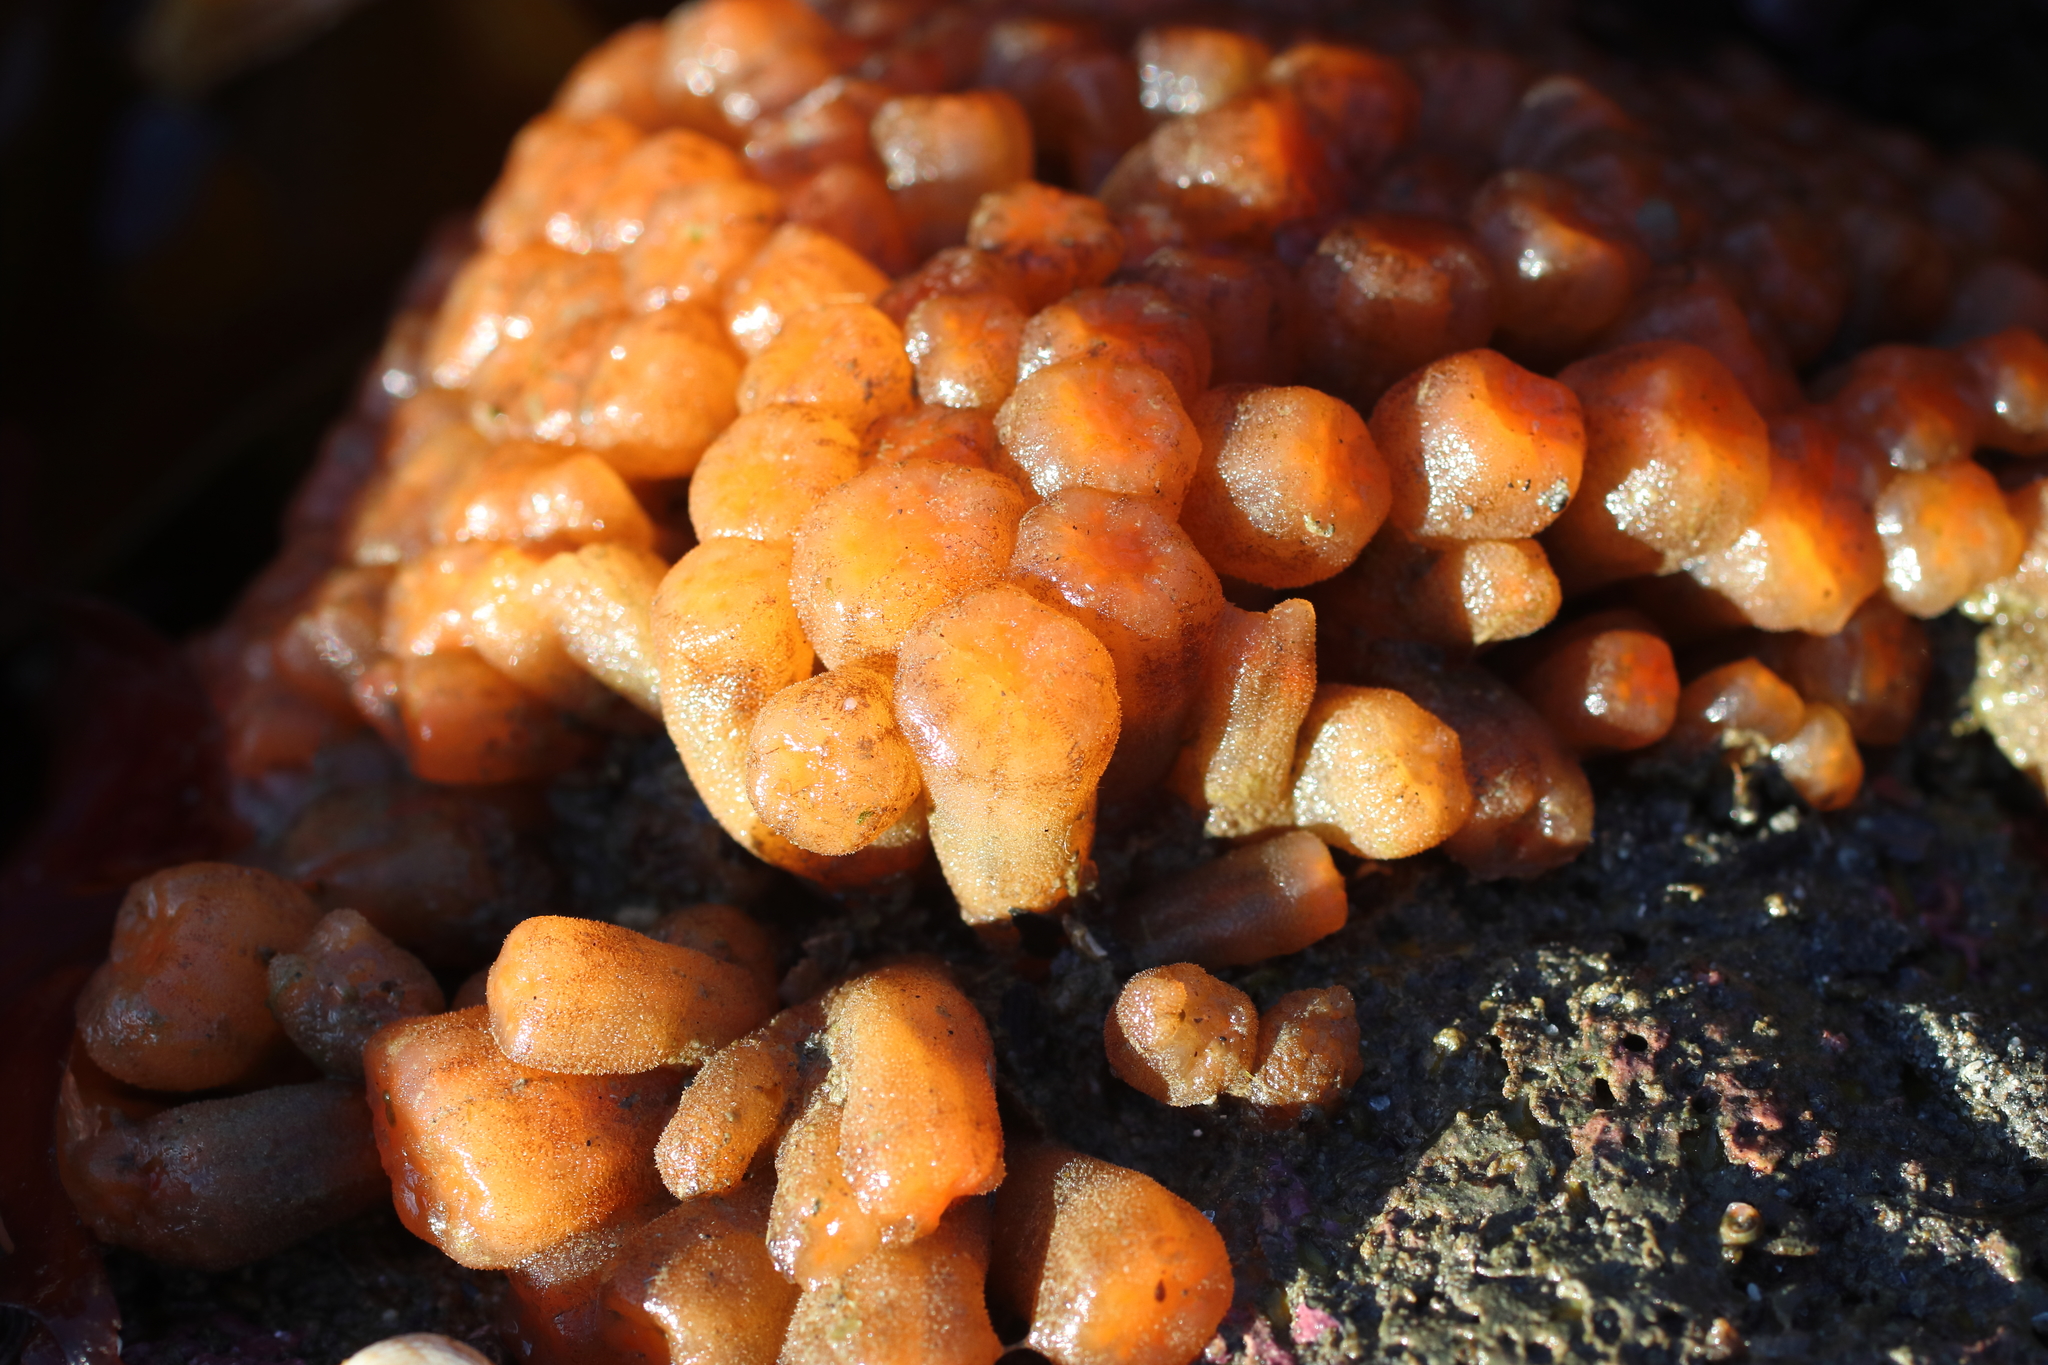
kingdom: Animalia
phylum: Chordata
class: Ascidiacea
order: Aplousobranchia
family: Polyclinidae
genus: Aplidium
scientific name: Aplidium coei
